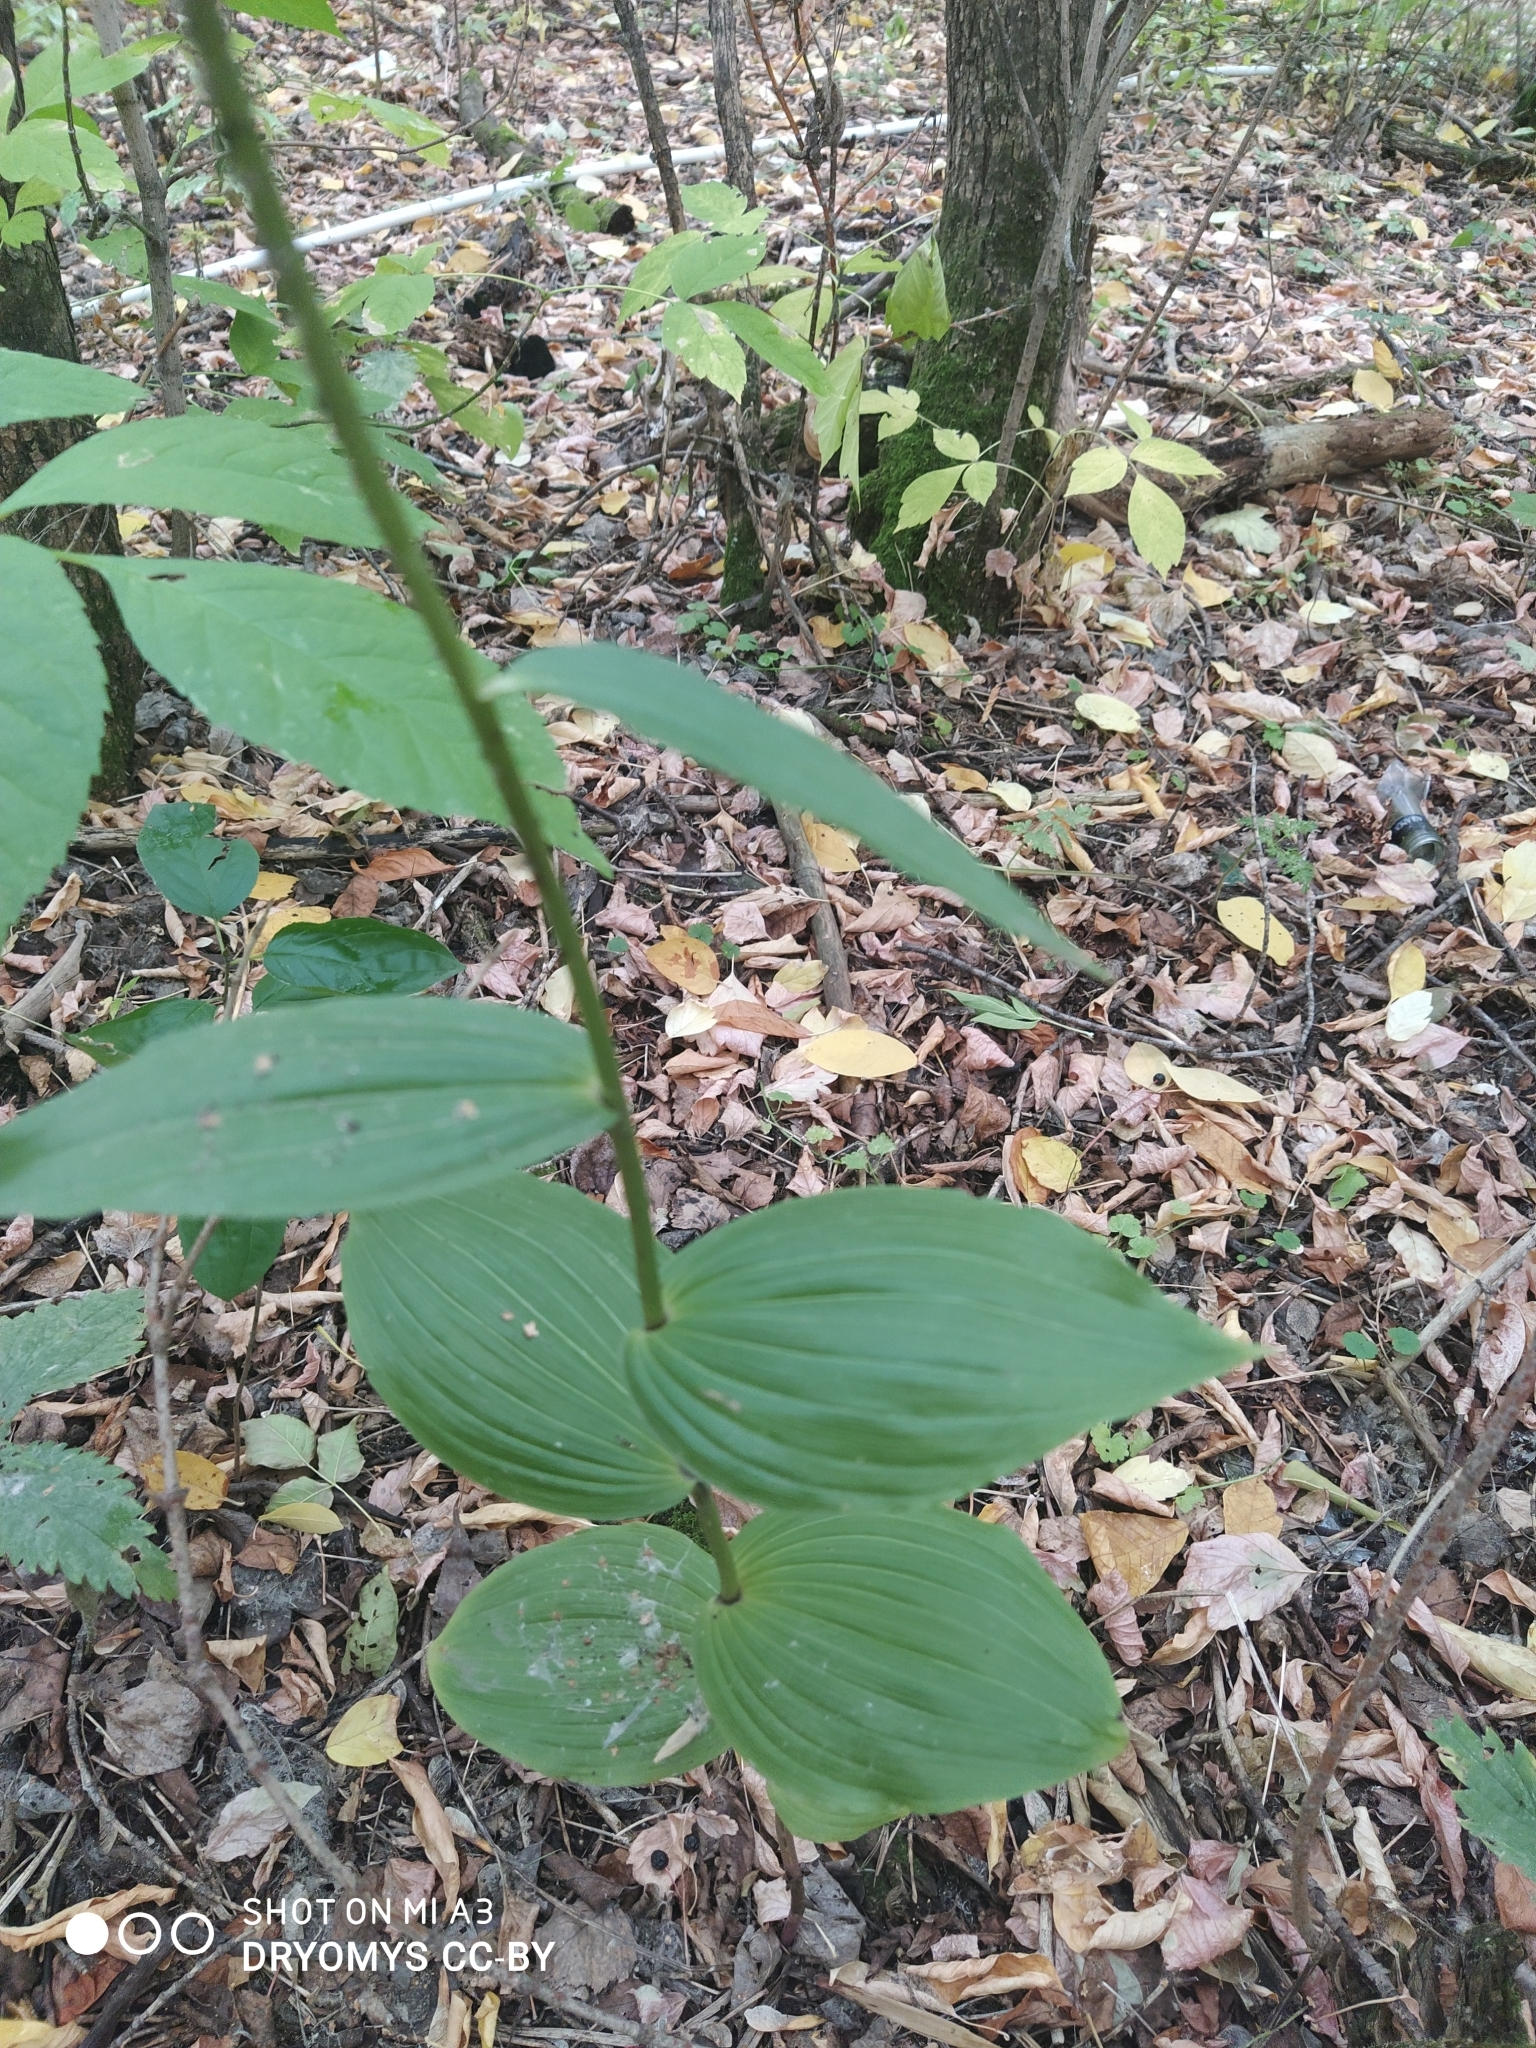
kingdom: Plantae
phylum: Tracheophyta
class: Liliopsida
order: Asparagales
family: Orchidaceae
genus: Epipactis
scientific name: Epipactis helleborine
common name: Broad-leaved helleborine
